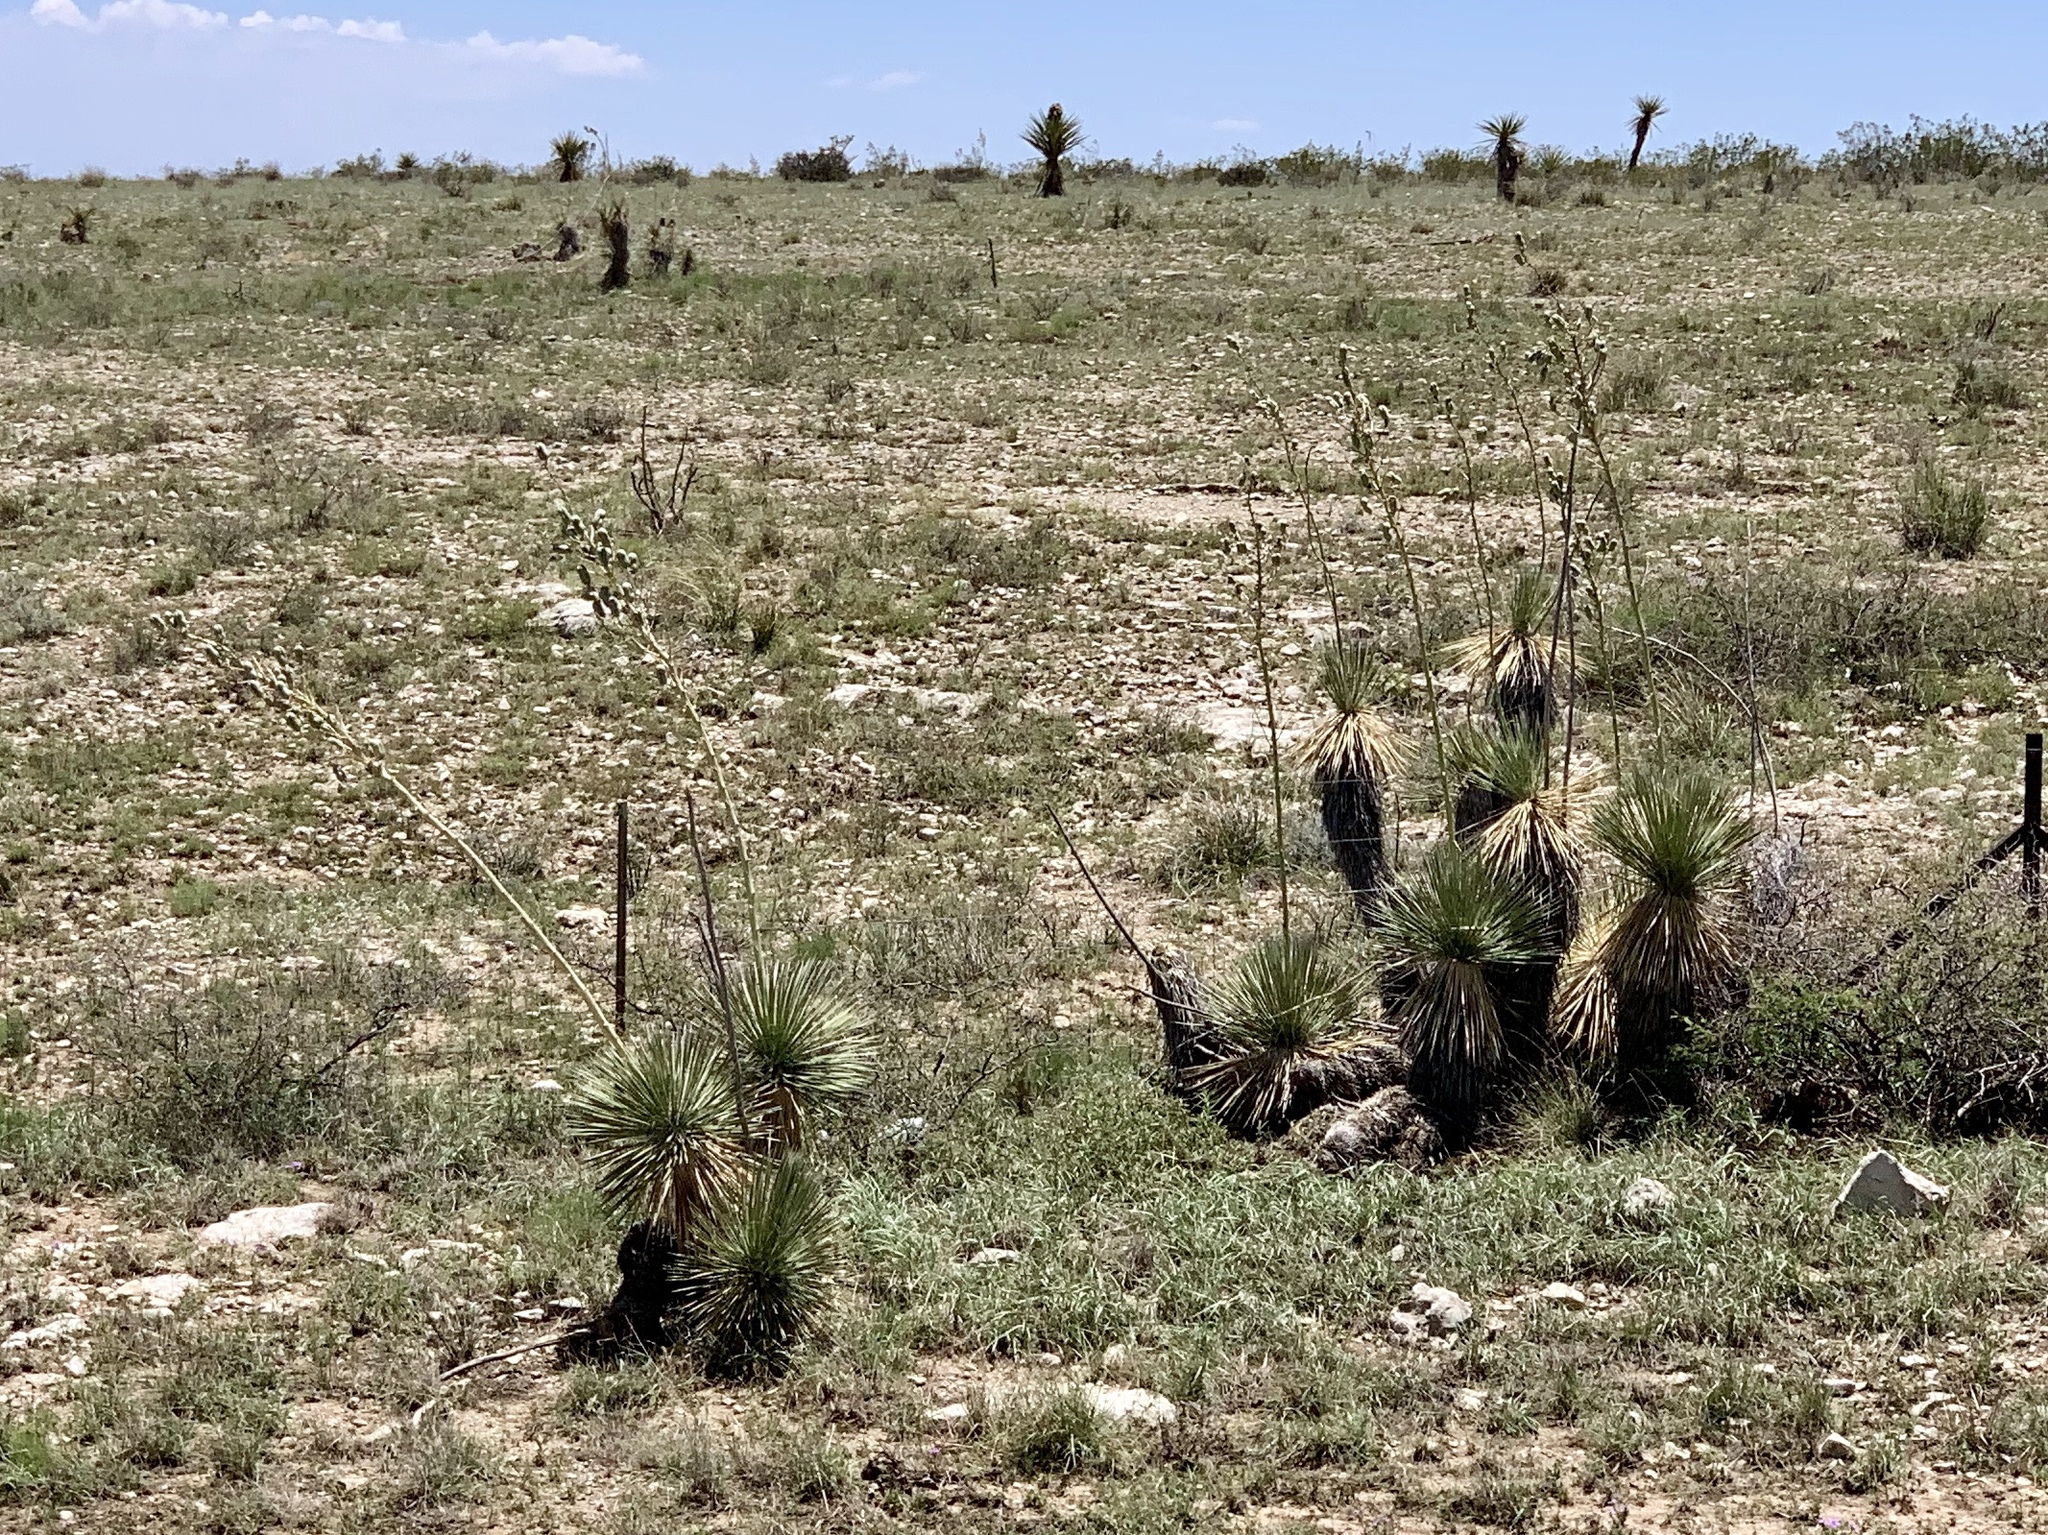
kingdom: Plantae
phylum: Tracheophyta
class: Liliopsida
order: Asparagales
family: Asparagaceae
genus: Yucca
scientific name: Yucca elata
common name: Palmella
